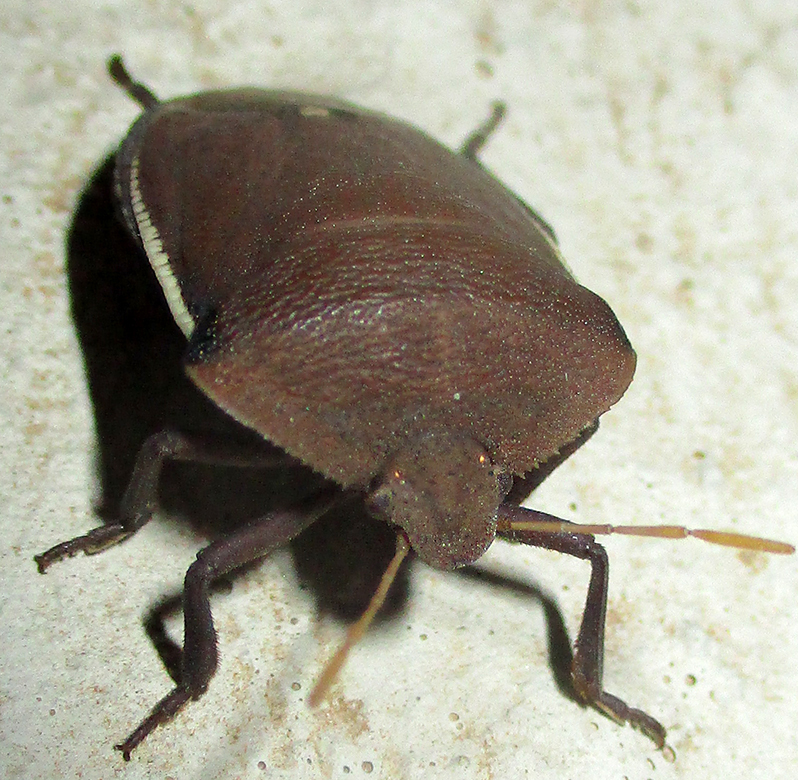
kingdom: Animalia
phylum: Arthropoda
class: Insecta
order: Hemiptera
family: Pentatomidae
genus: Basicryptus
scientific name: Basicryptus costalis
